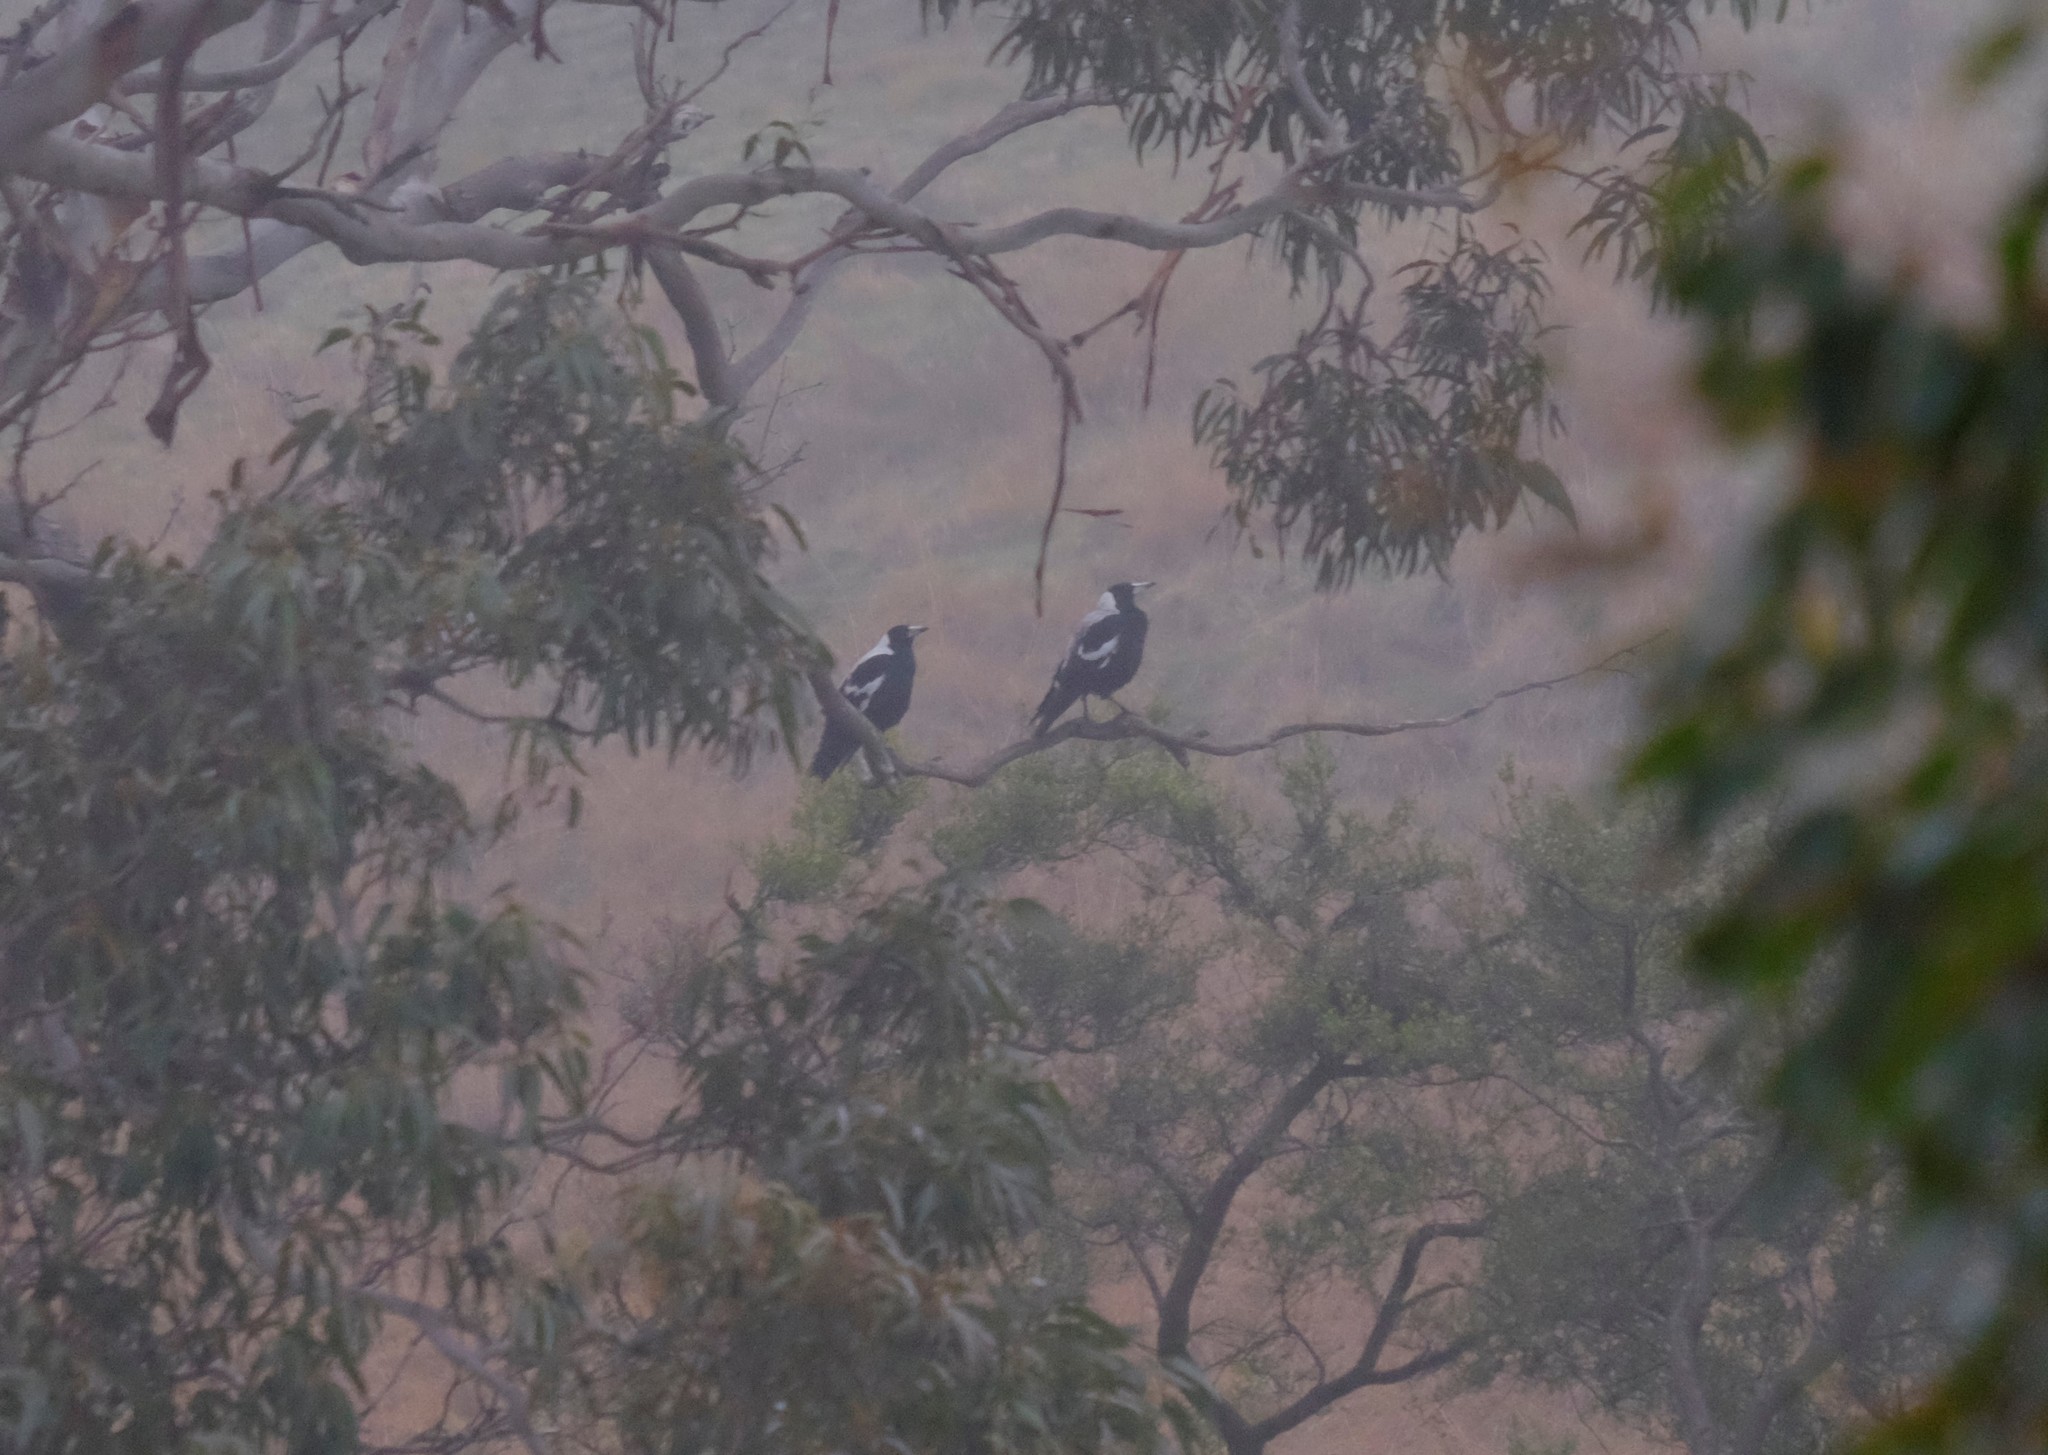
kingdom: Animalia
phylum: Chordata
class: Aves
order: Passeriformes
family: Cracticidae
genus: Gymnorhina
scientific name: Gymnorhina tibicen
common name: Australian magpie
